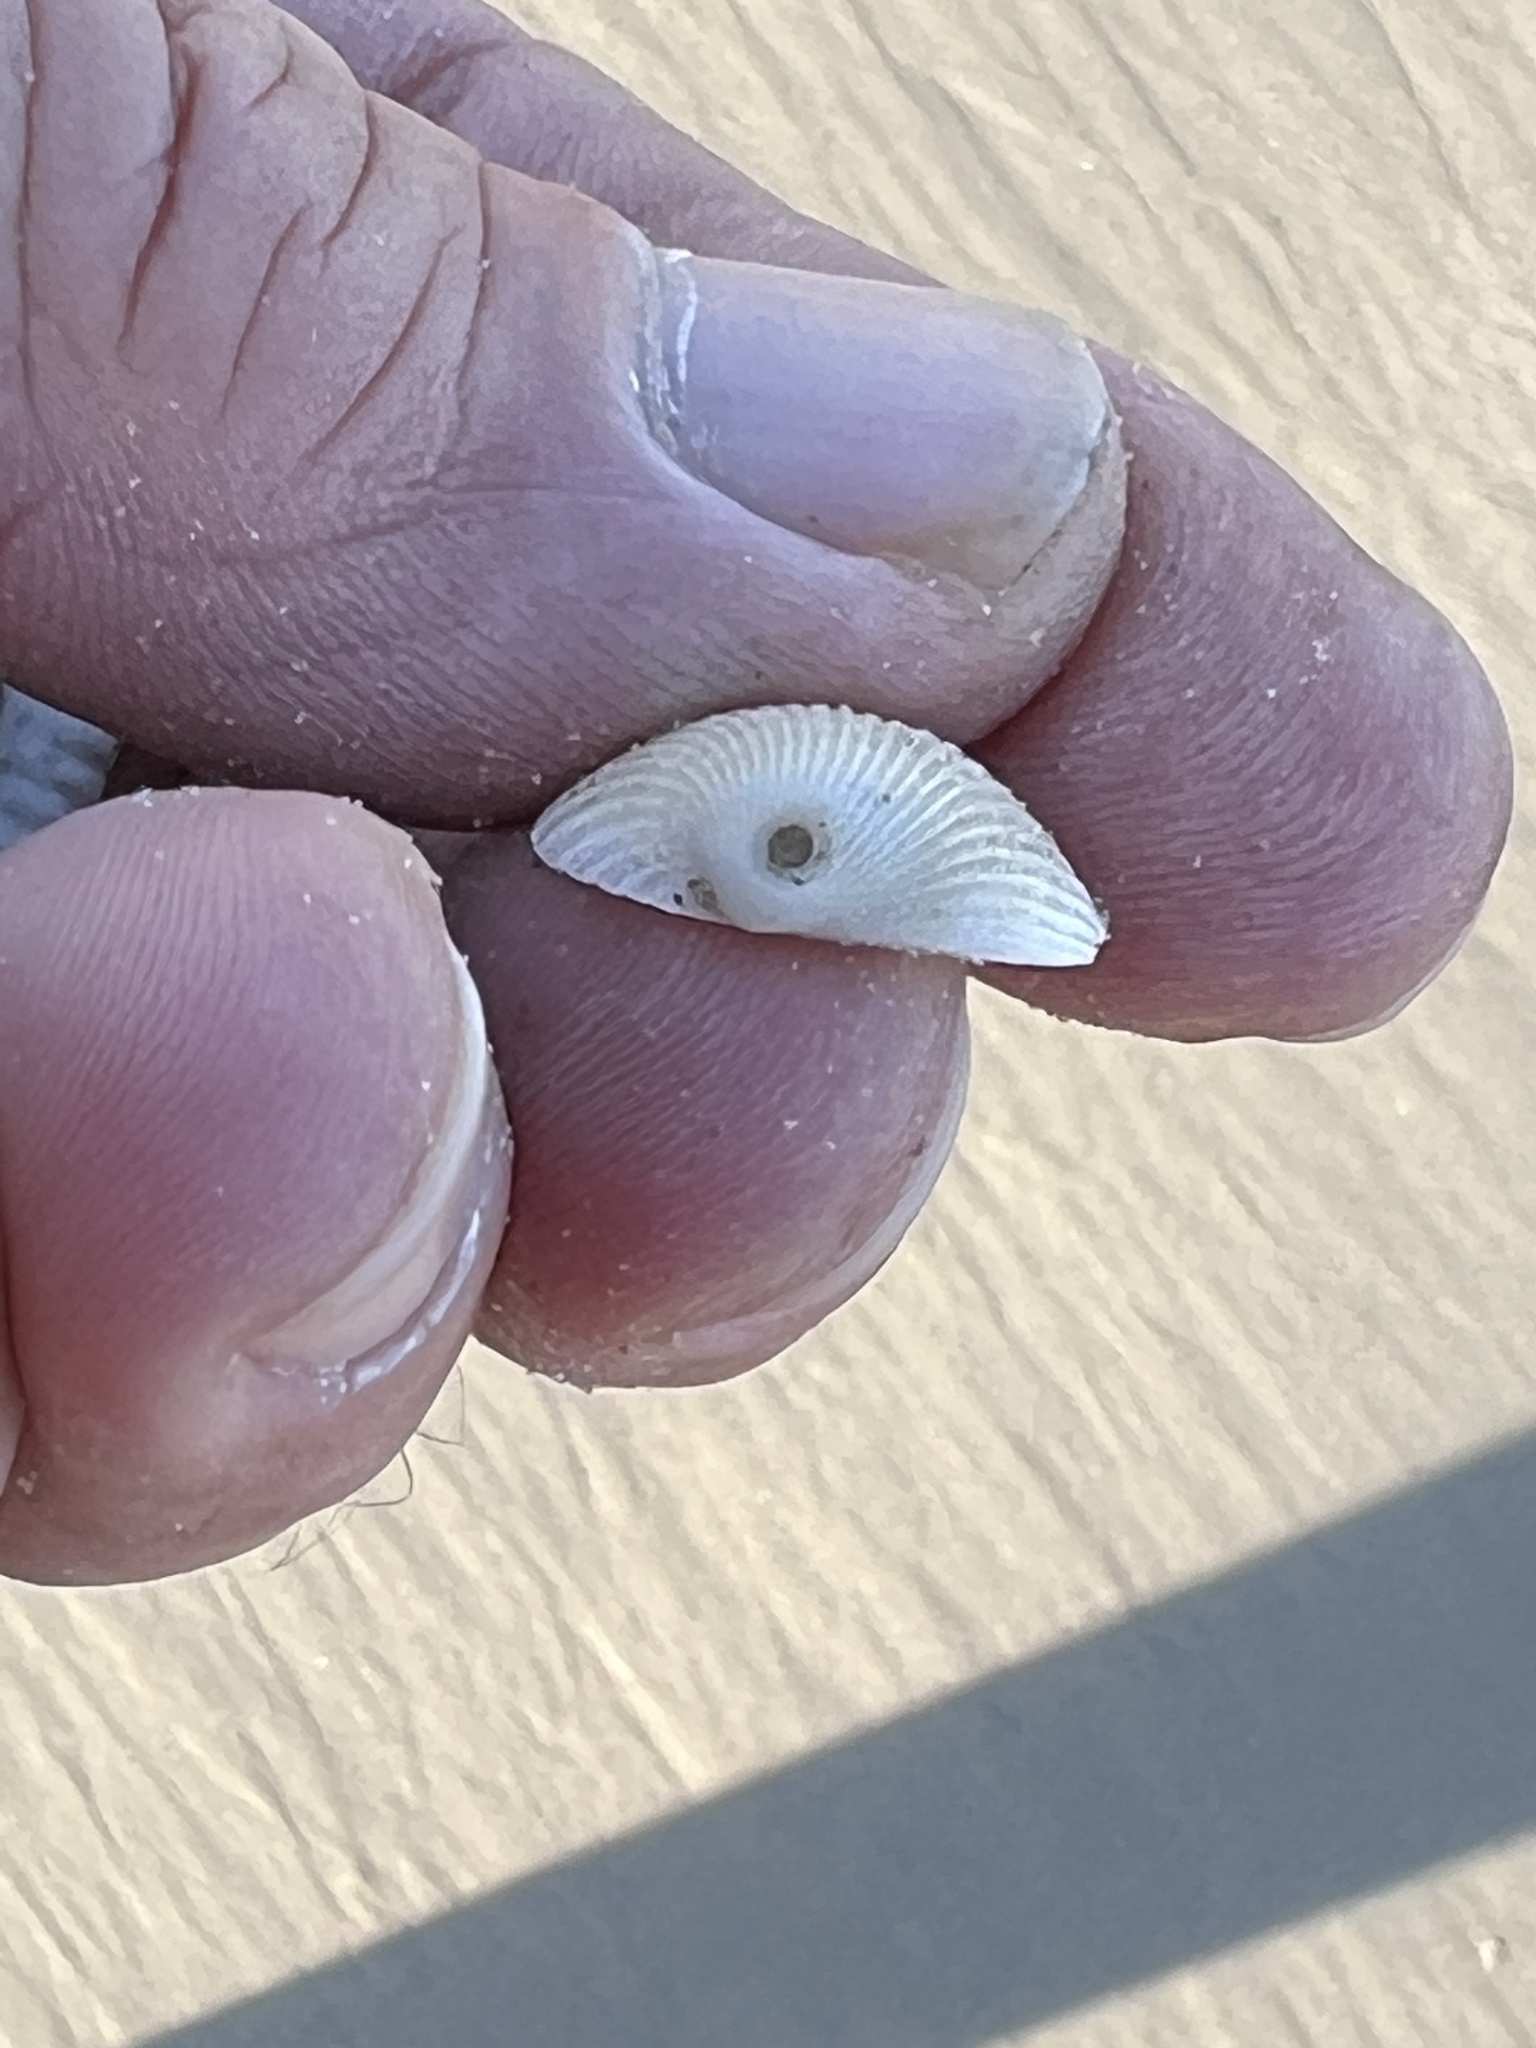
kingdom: Animalia
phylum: Mollusca
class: Bivalvia
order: Arcida
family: Arcidae
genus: Lunarca
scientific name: Lunarca ovalis
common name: Blood ark
